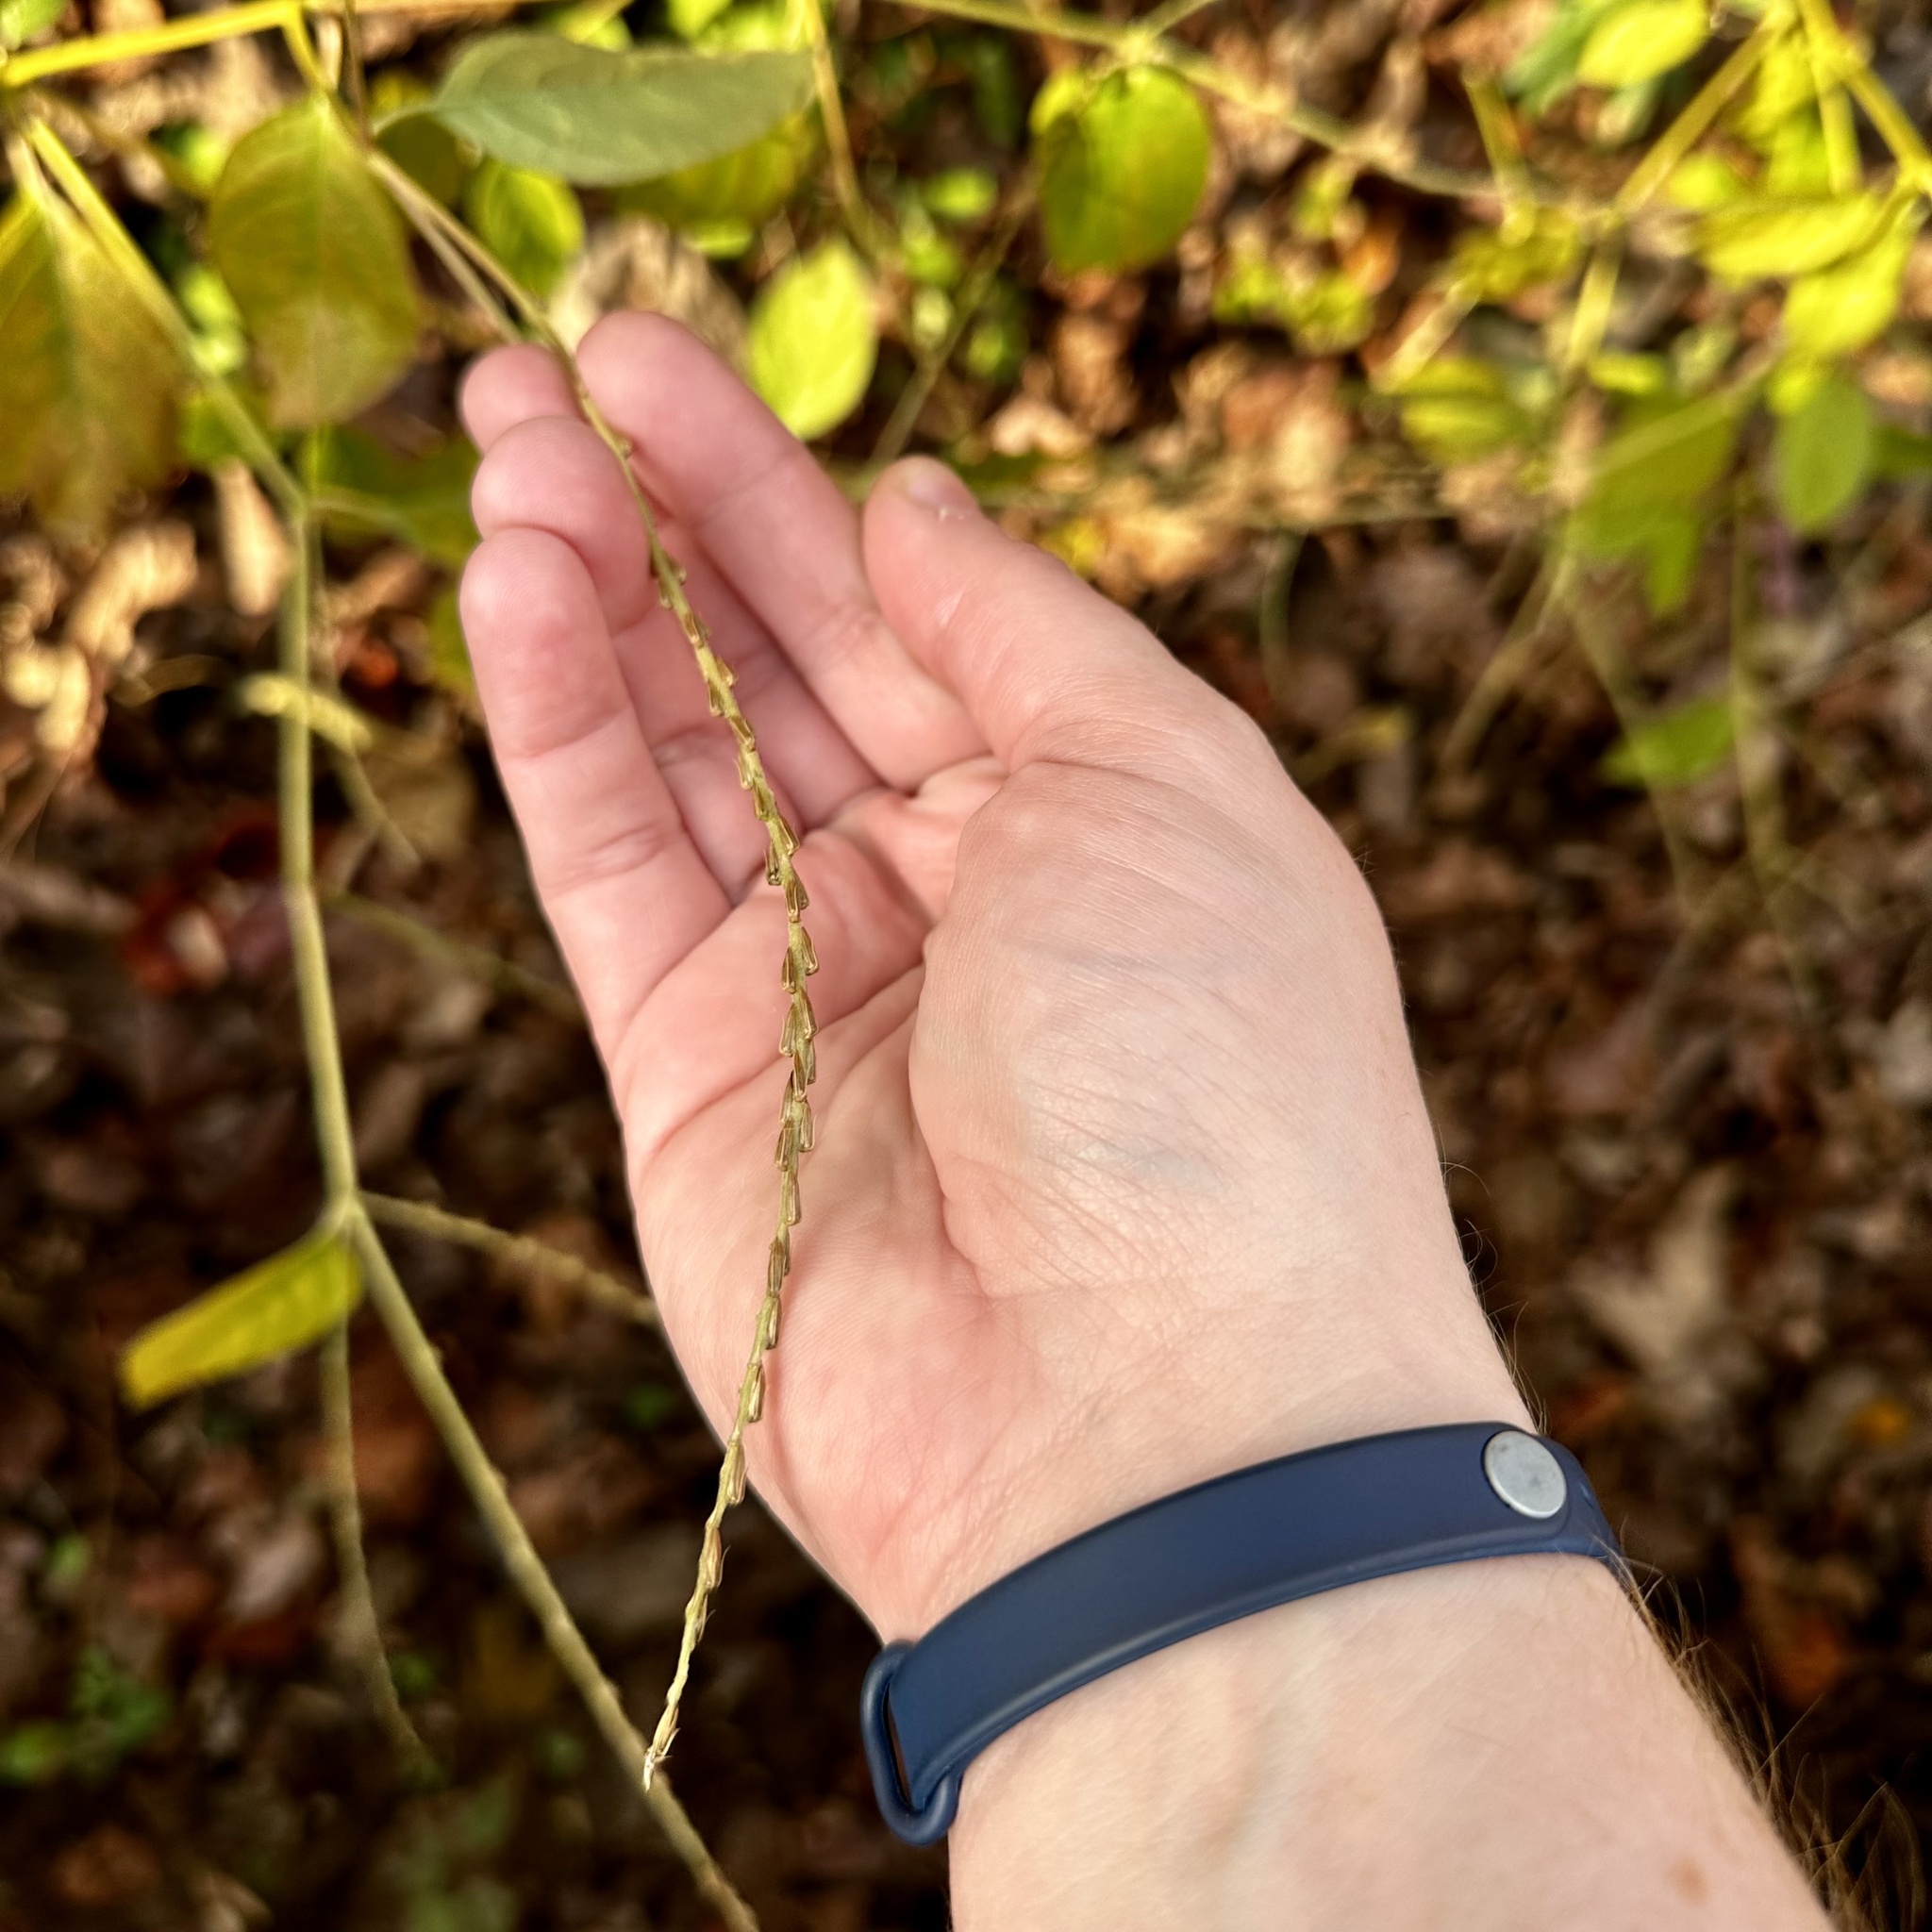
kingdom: Plantae
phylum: Tracheophyta
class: Magnoliopsida
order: Caryophyllales
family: Amaranthaceae
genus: Achyranthes
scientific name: Achyranthes bidentata
